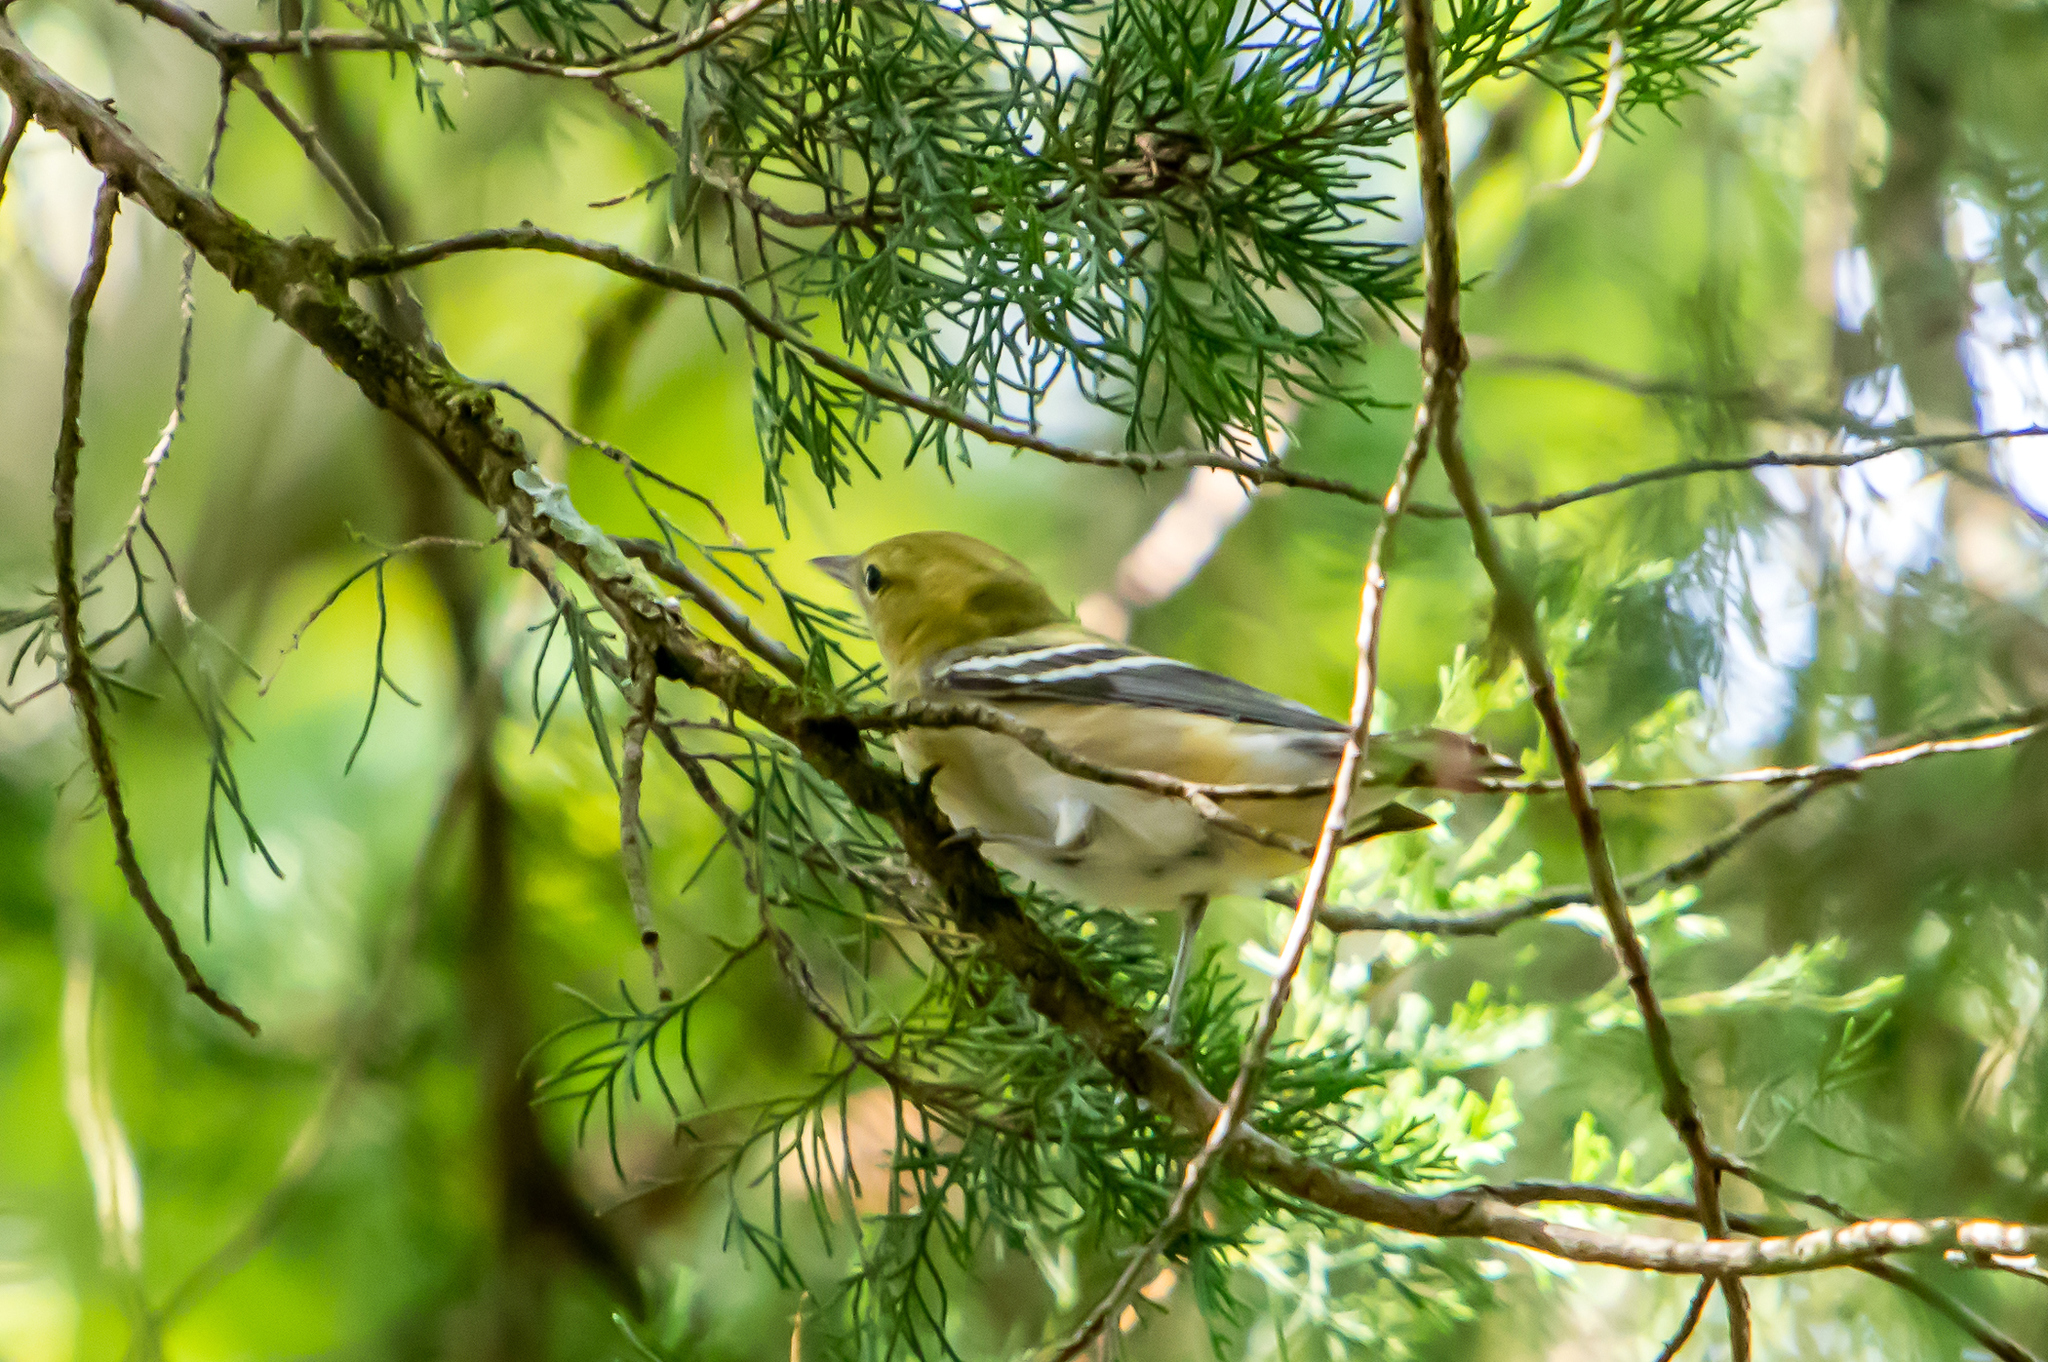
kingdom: Animalia
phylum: Chordata
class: Aves
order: Passeriformes
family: Parulidae
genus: Setophaga
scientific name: Setophaga castanea
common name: Bay-breasted warbler
